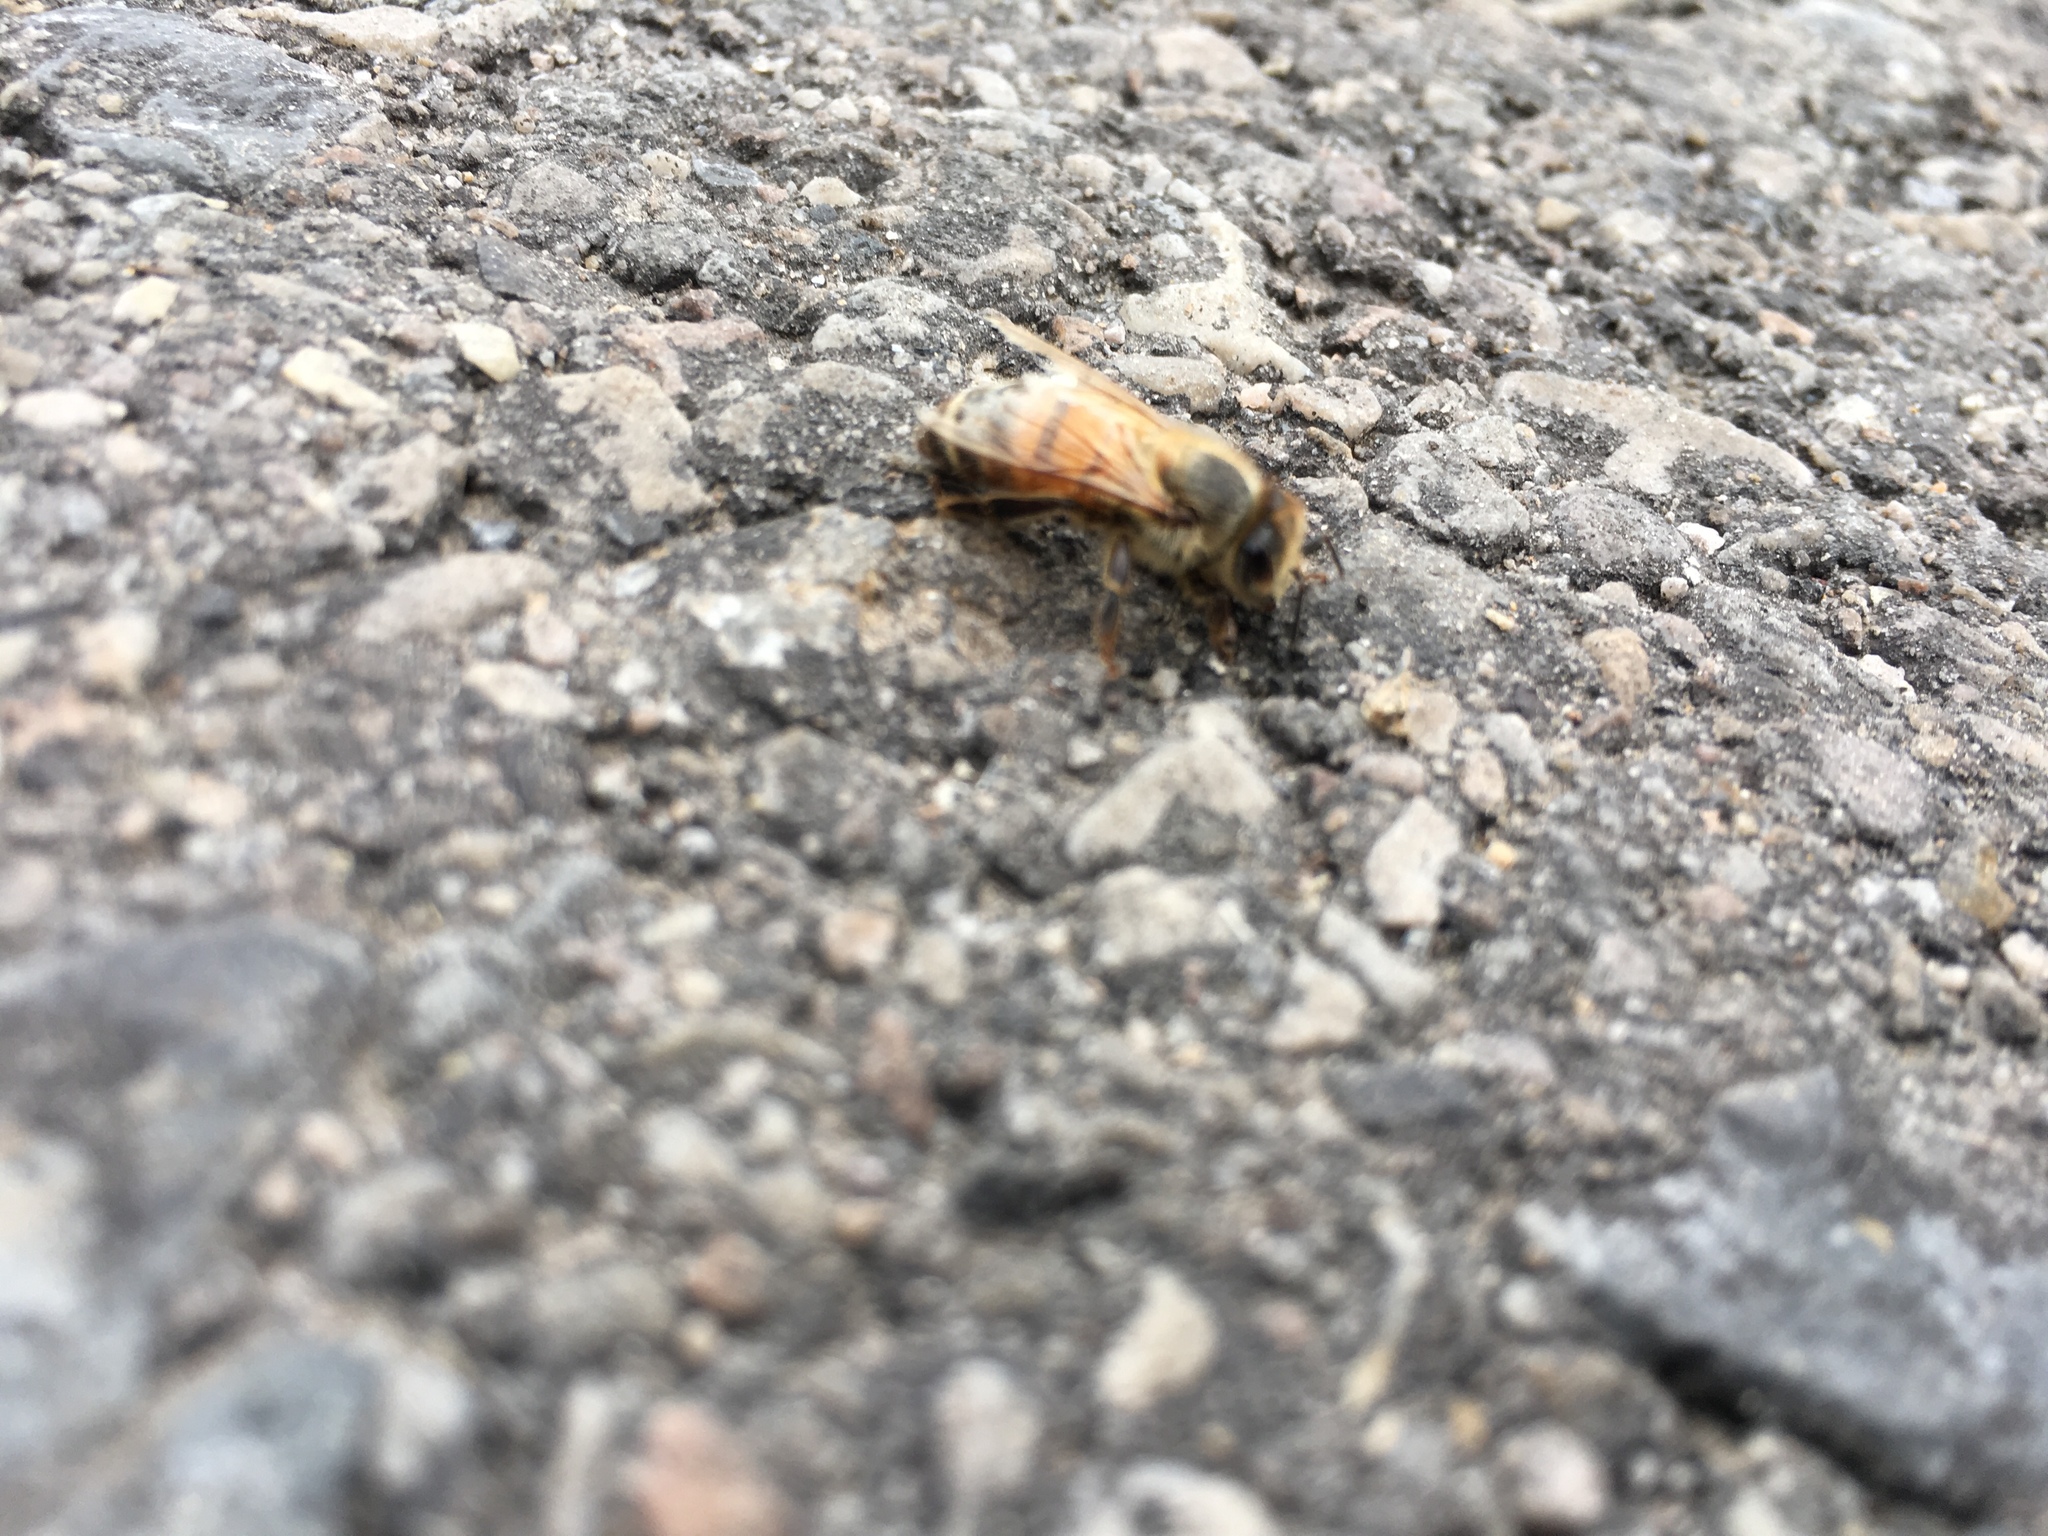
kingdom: Animalia
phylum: Arthropoda
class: Insecta
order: Hymenoptera
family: Apidae
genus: Apis
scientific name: Apis mellifera
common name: Honey bee
